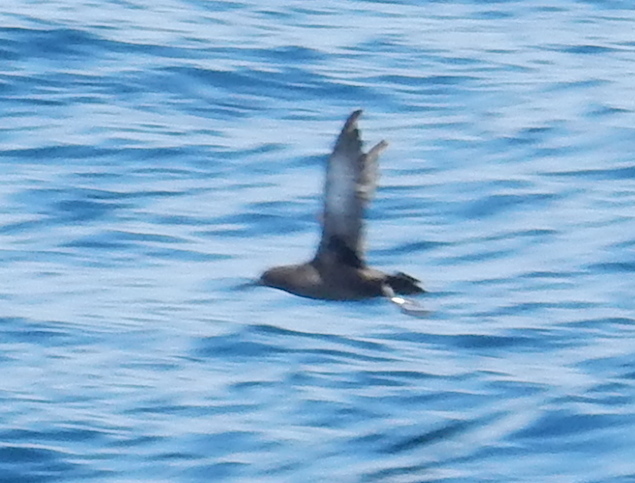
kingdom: Animalia
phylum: Chordata
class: Aves
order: Procellariiformes
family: Procellariidae
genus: Puffinus
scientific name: Puffinus griseus
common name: Sooty shearwater
